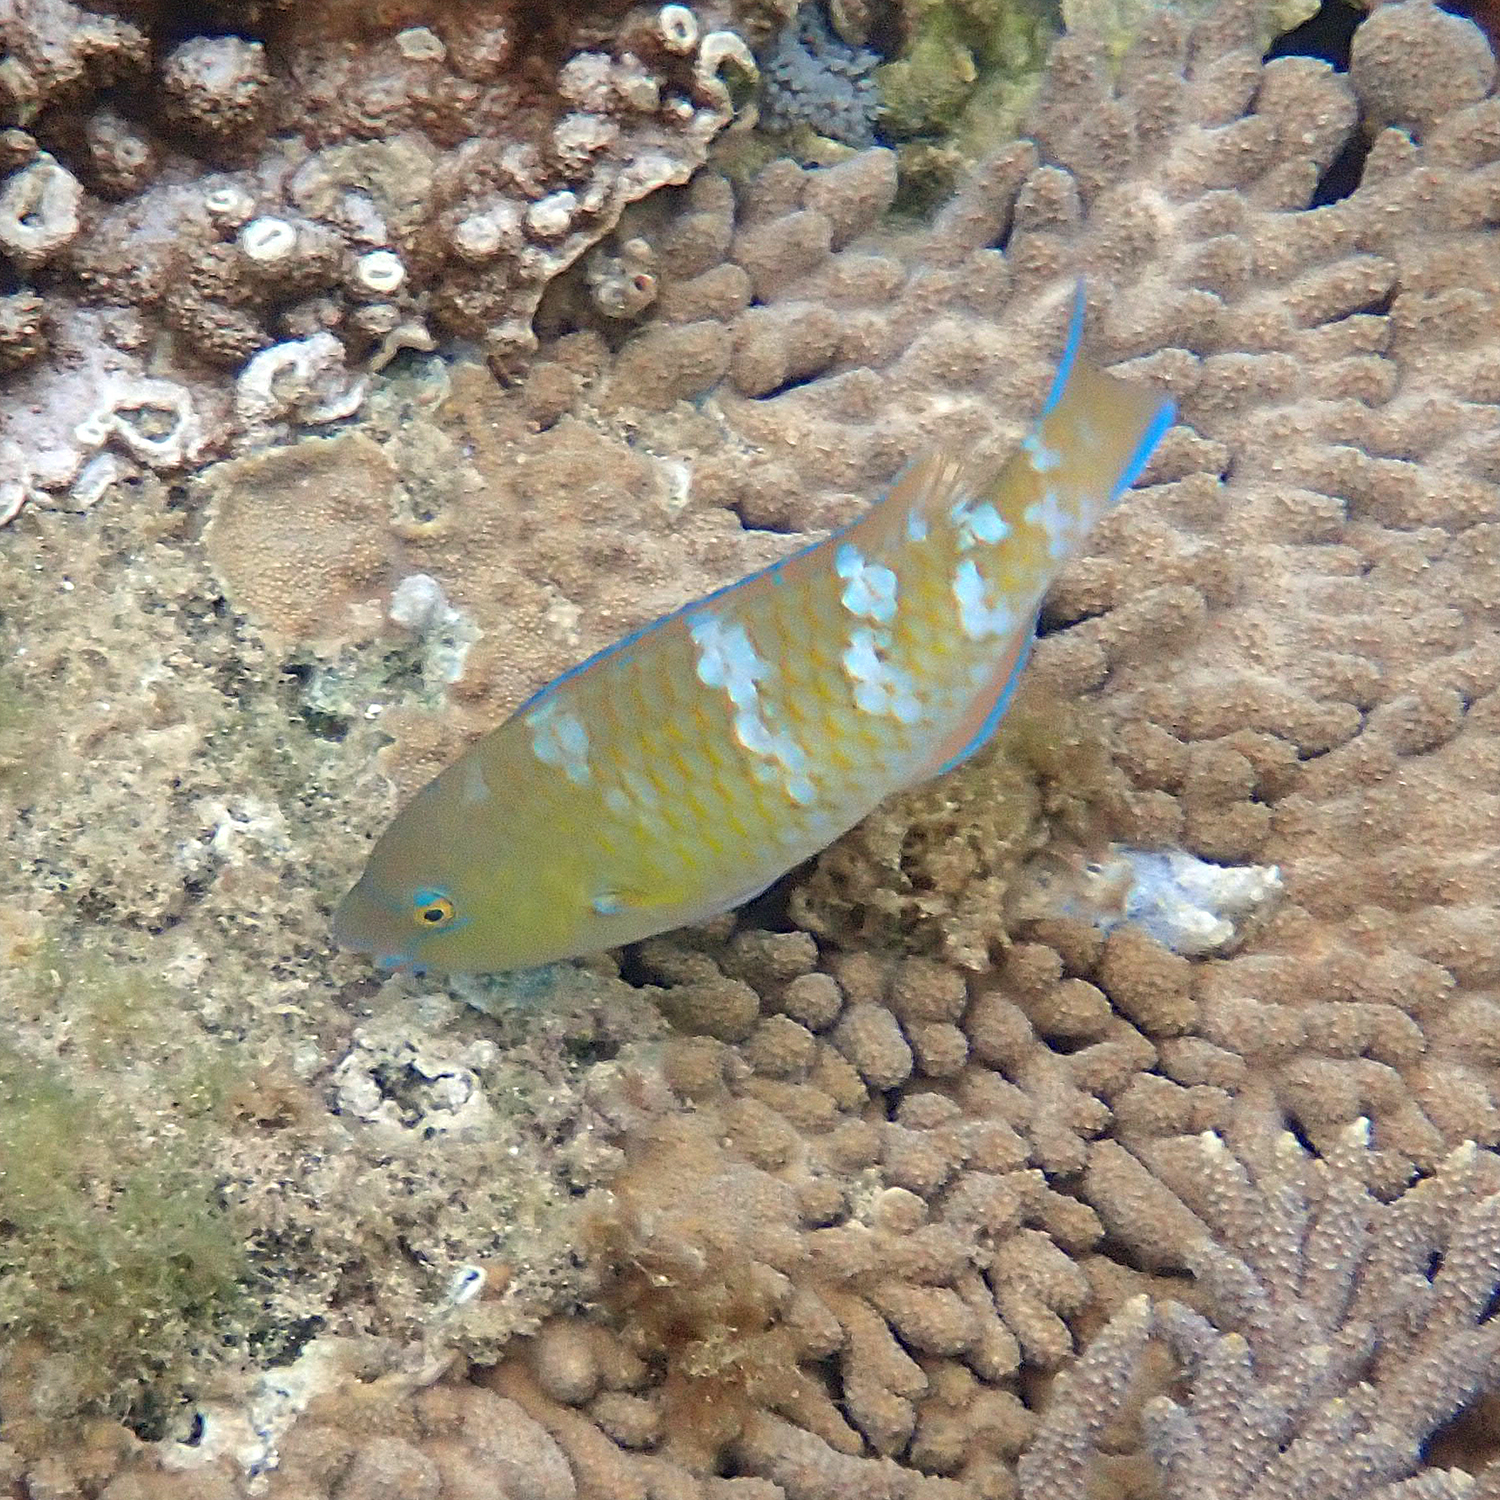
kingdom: Animalia
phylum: Chordata
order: Perciformes
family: Scaridae
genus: Scarus
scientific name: Scarus ghobban
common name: Blue-barred parrotfish
